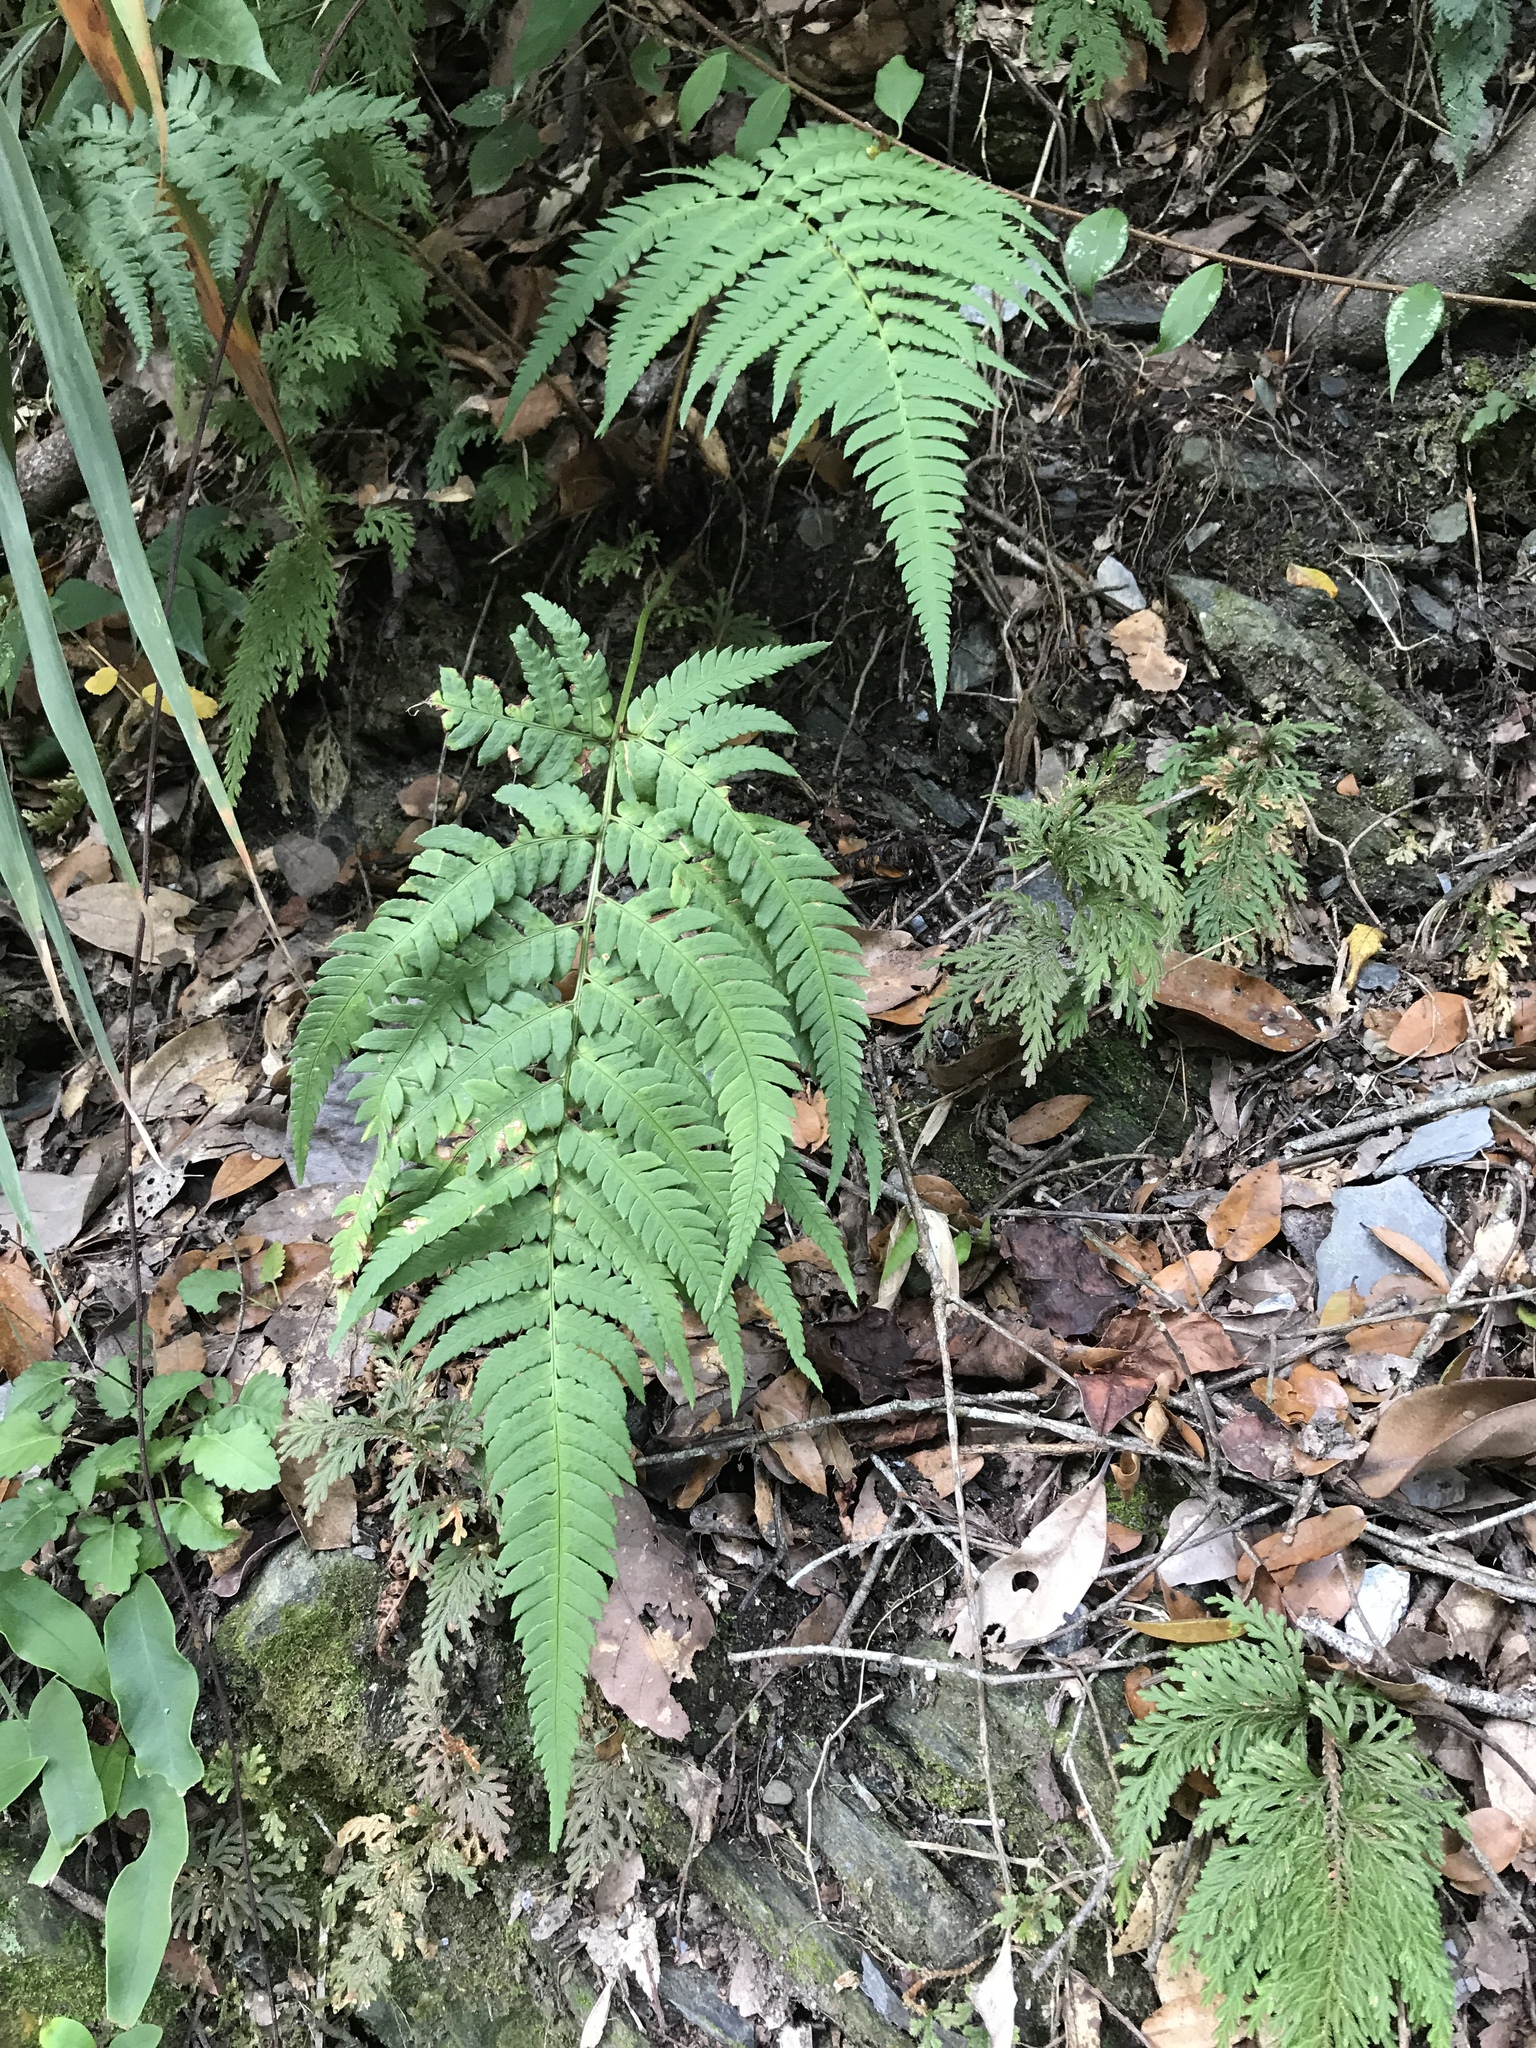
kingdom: Plantae
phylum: Tracheophyta
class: Polypodiopsida
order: Polypodiales
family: Dryopteridaceae
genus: Dryopteris
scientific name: Dryopteris varia
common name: Japanese holly fern
